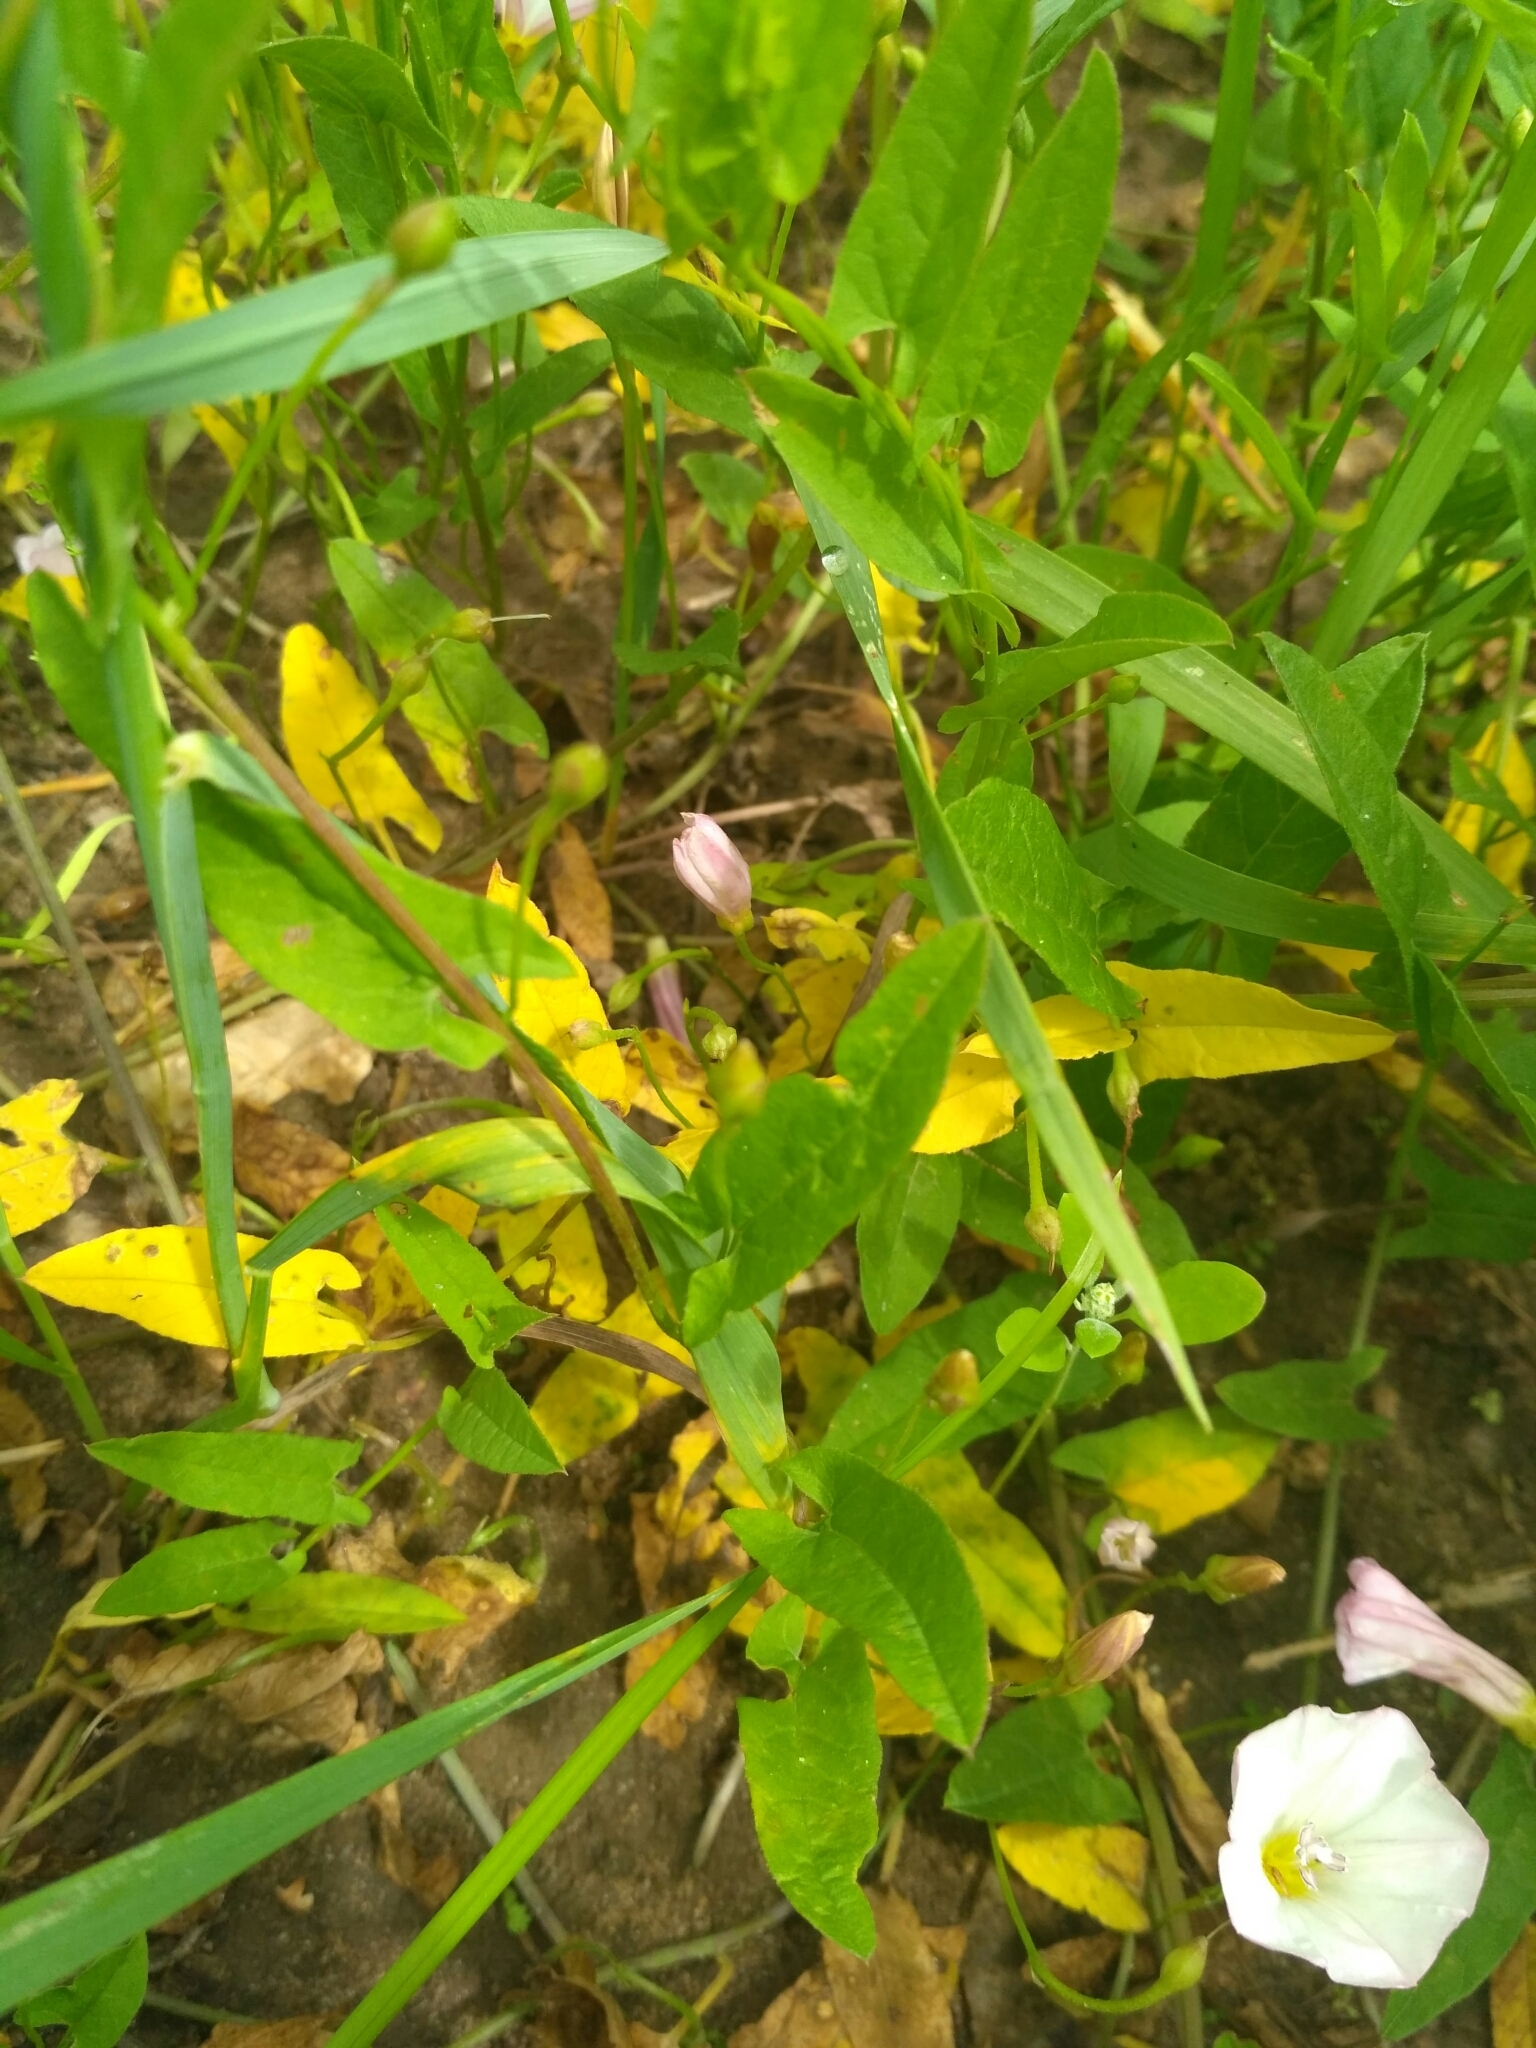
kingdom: Plantae
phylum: Tracheophyta
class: Magnoliopsida
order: Solanales
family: Convolvulaceae
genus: Convolvulus
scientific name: Convolvulus arvensis
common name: Field bindweed
